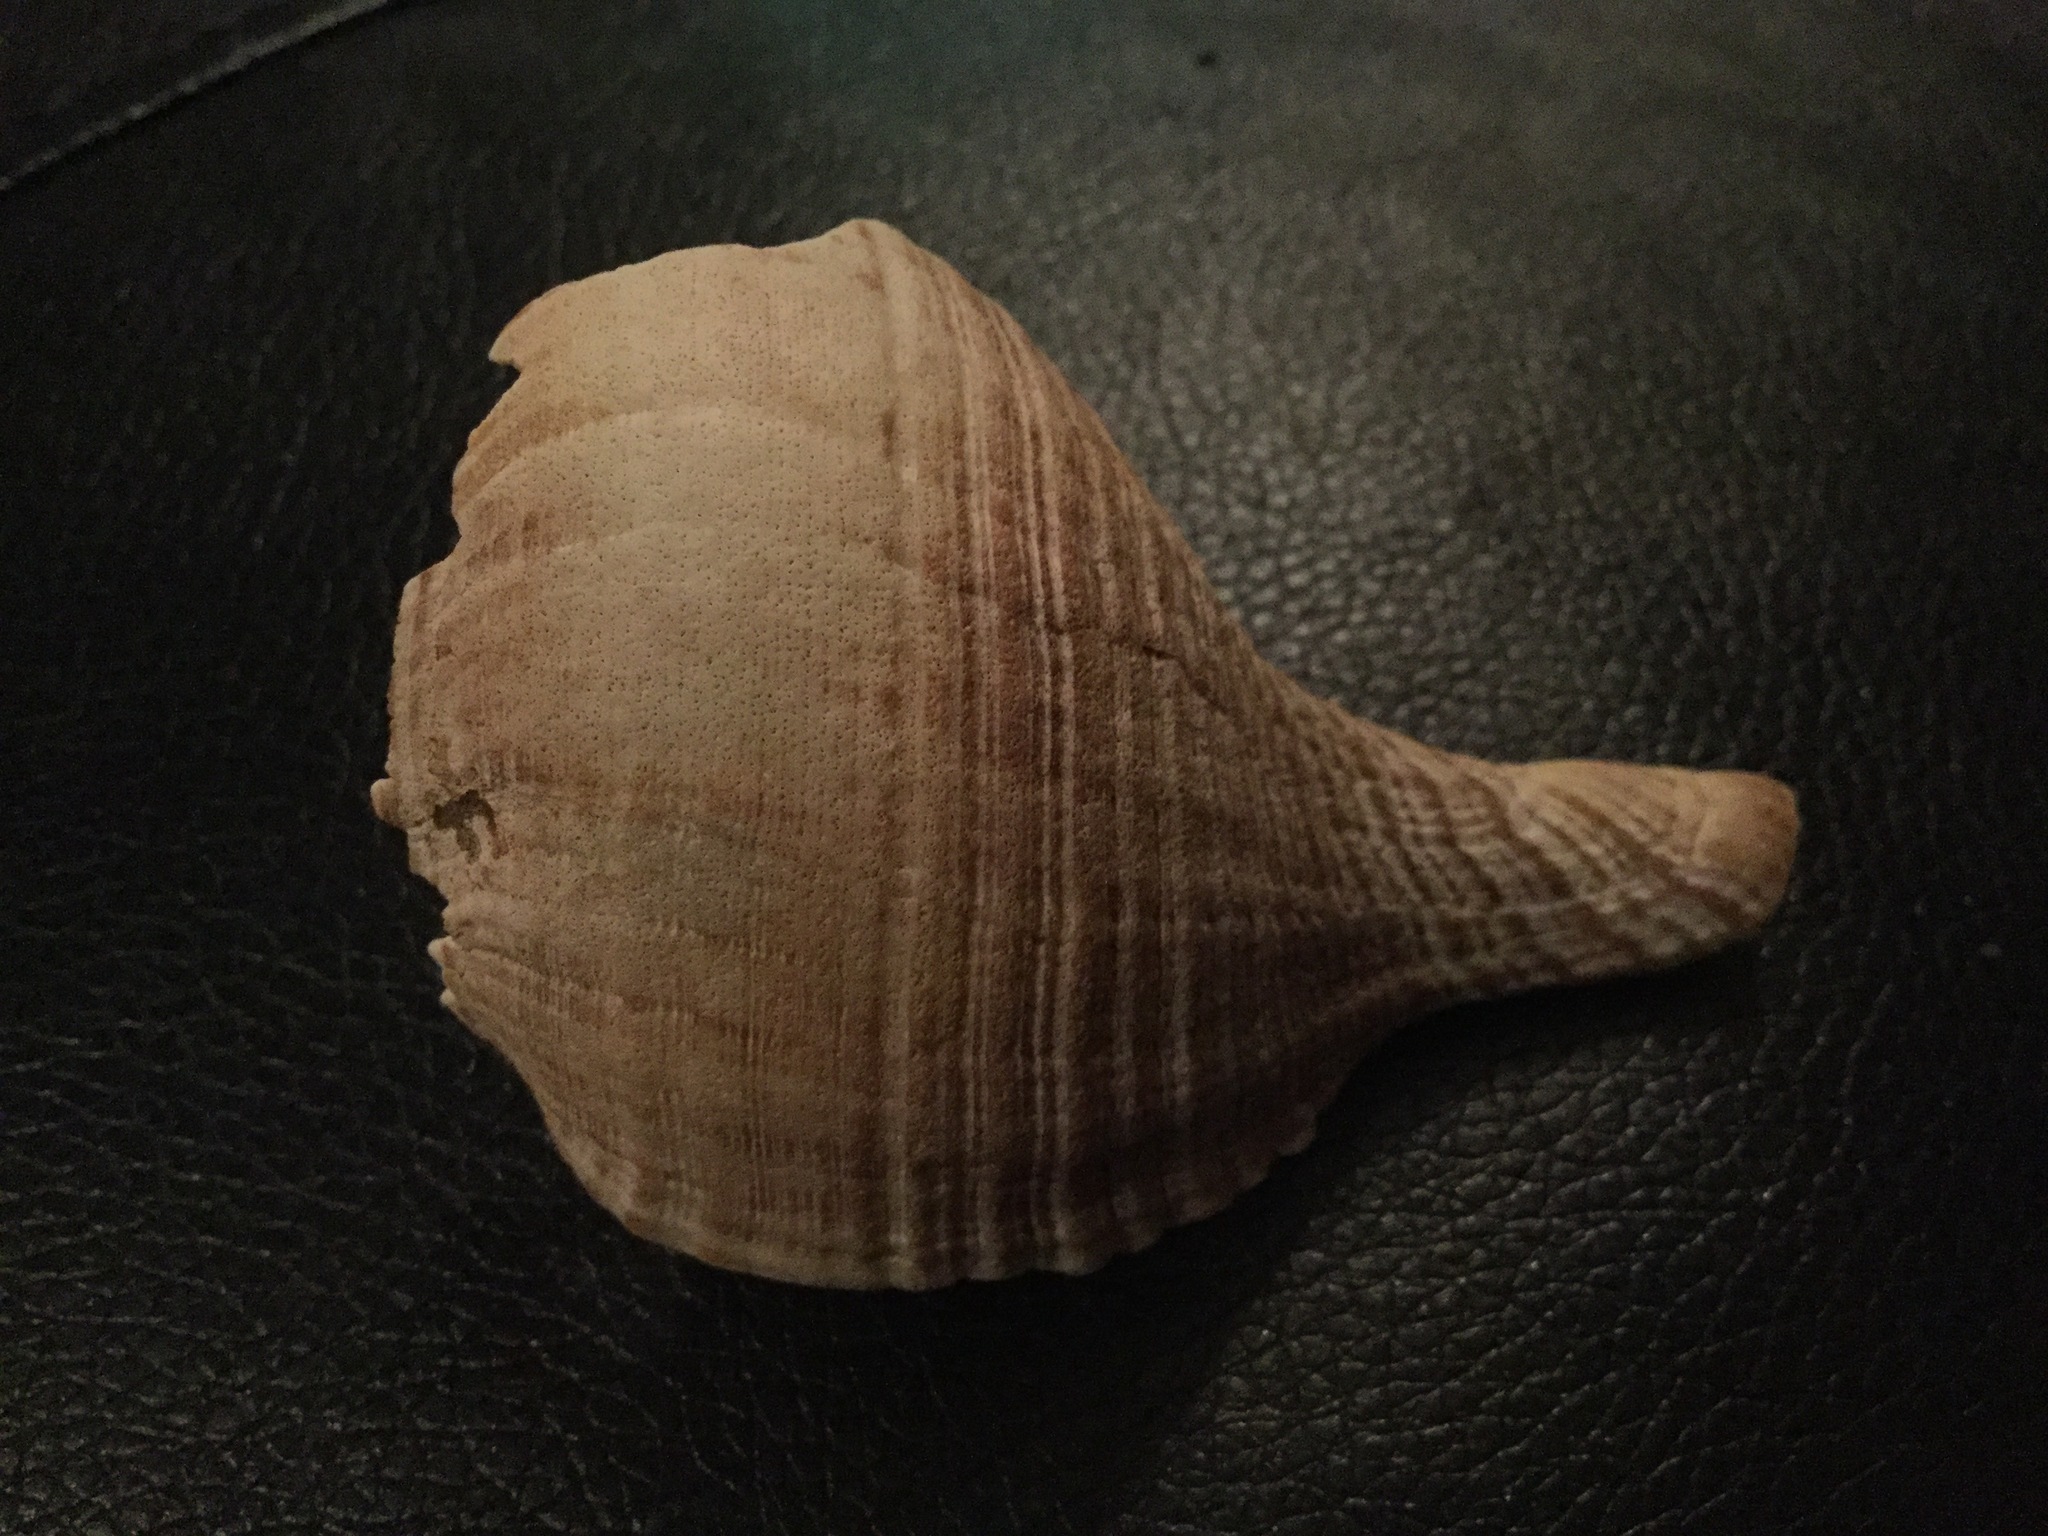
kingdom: Animalia
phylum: Mollusca
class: Gastropoda
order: Neogastropoda
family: Austrosiphonidae
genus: Penion
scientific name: Penion sulcatus
